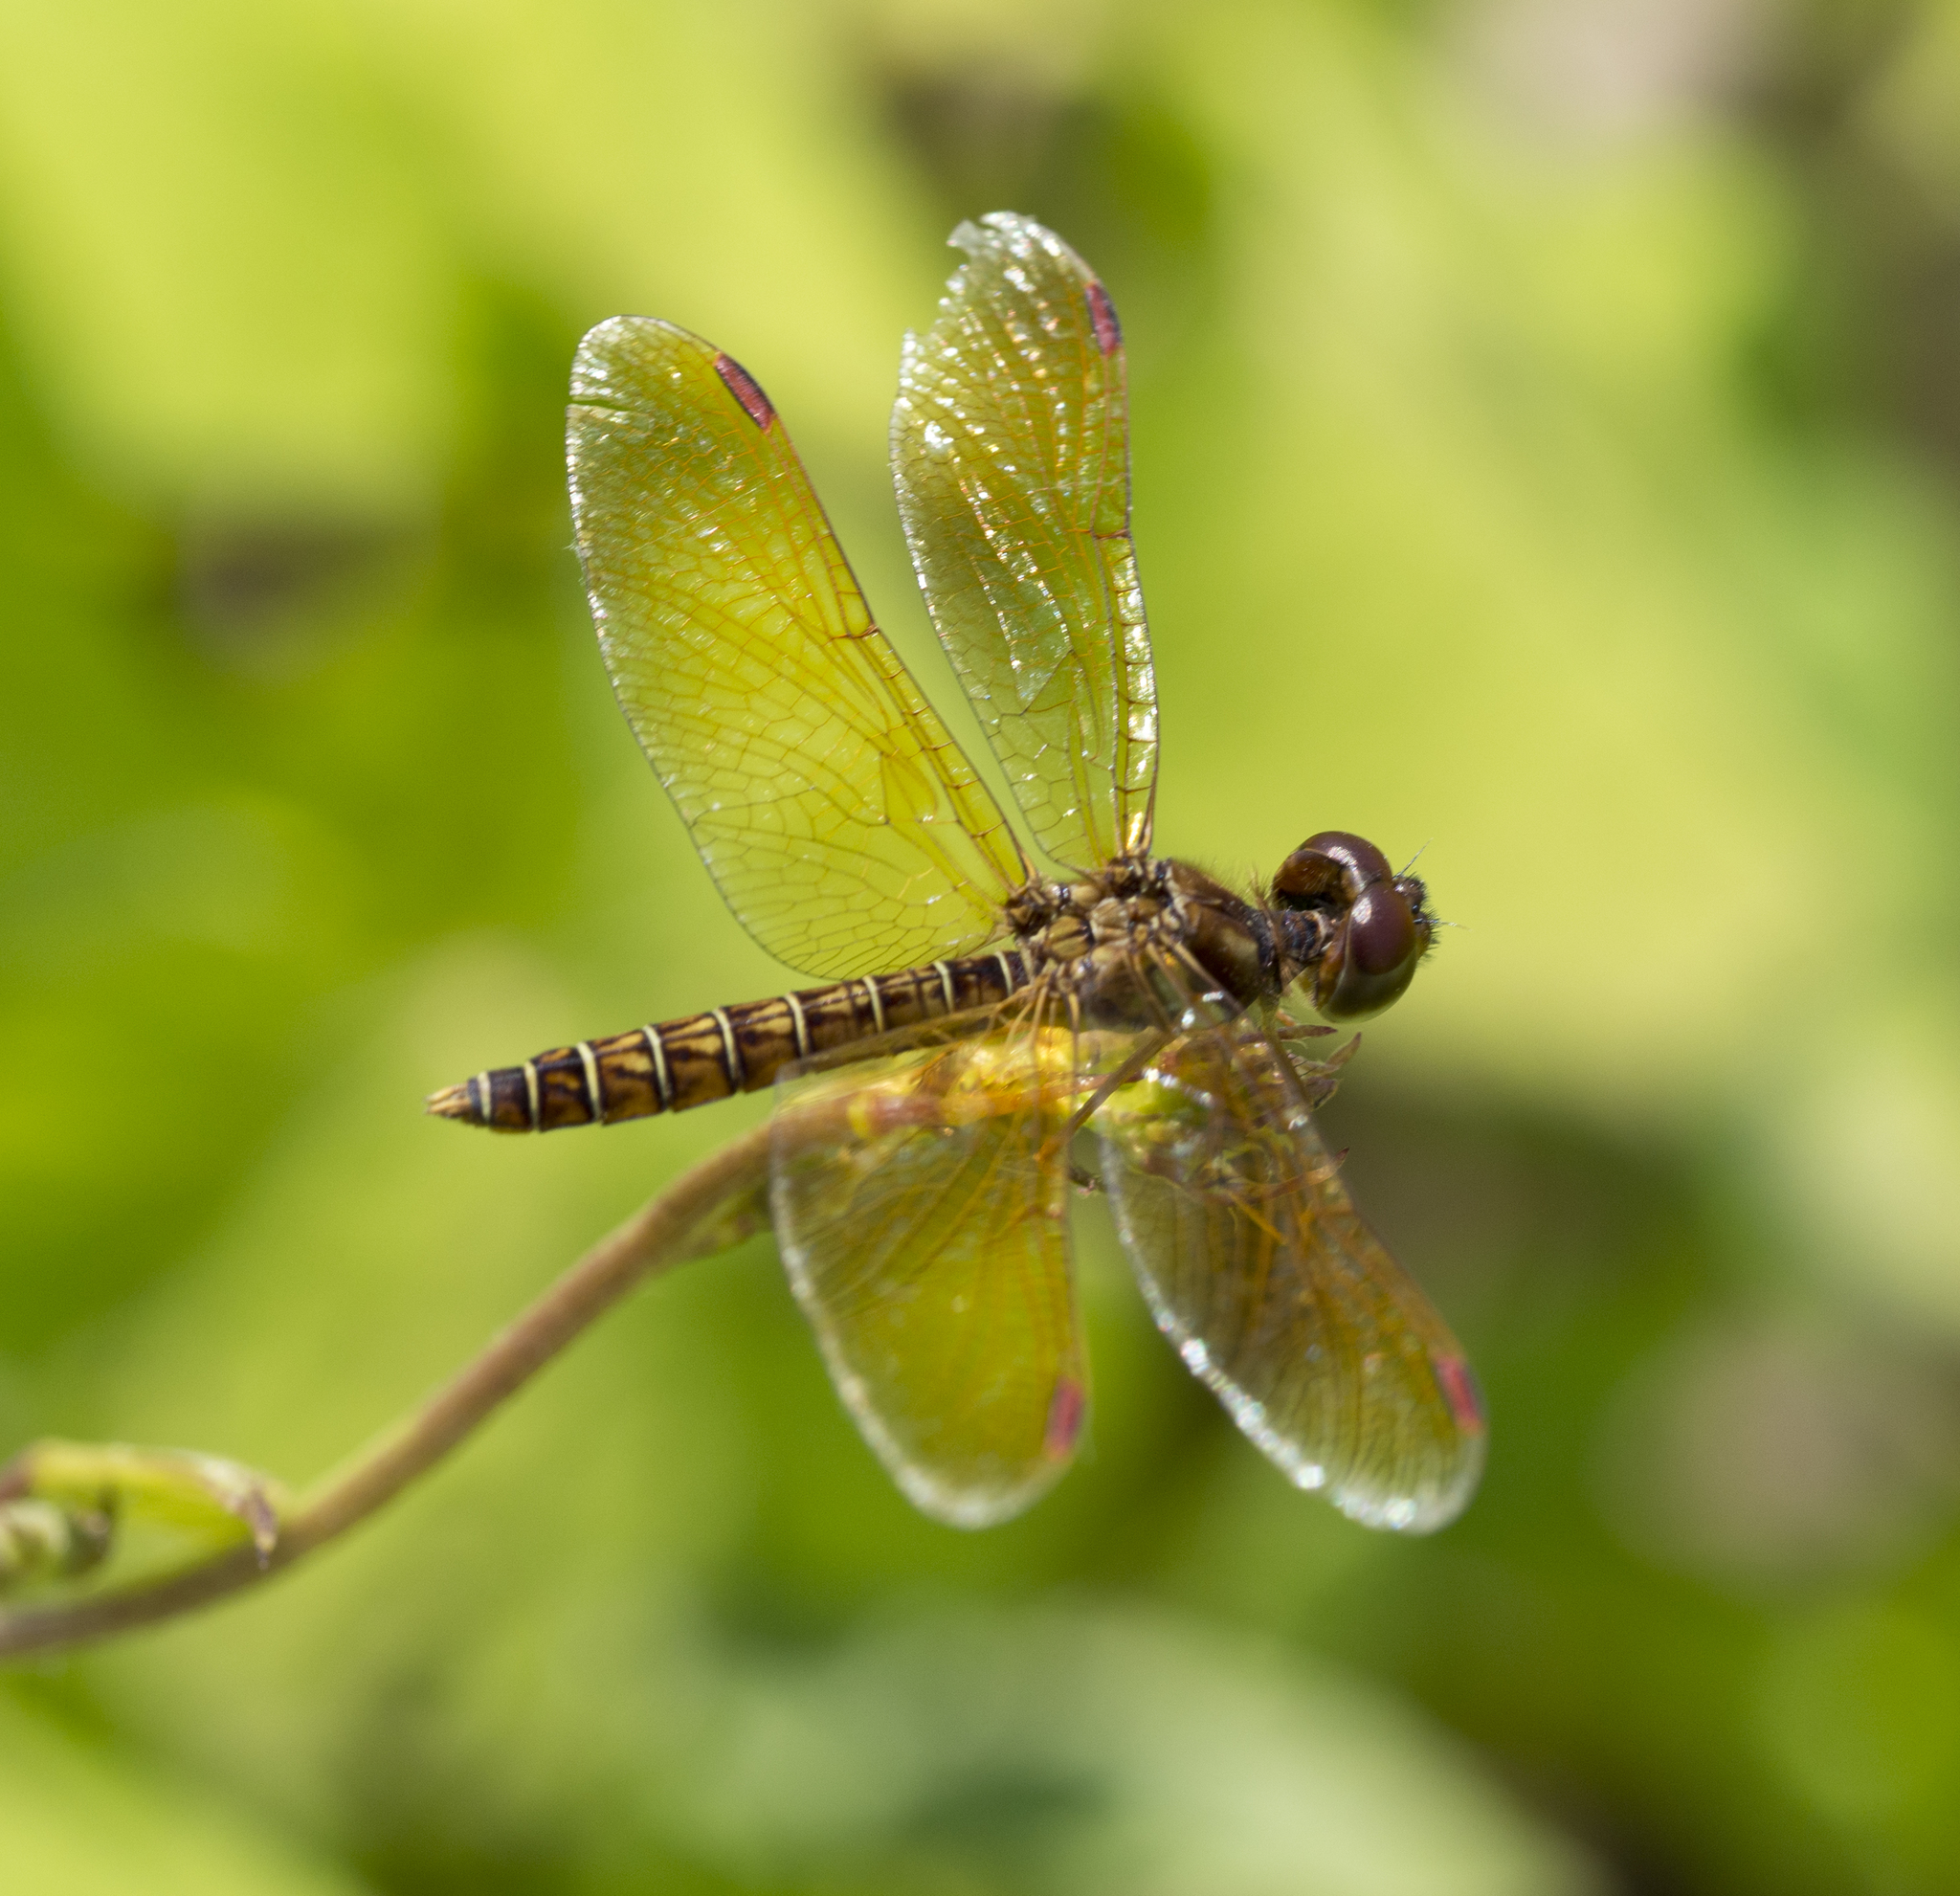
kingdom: Animalia
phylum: Arthropoda
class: Insecta
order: Odonata
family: Libellulidae
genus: Perithemis
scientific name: Perithemis tenera
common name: Eastern amberwing
